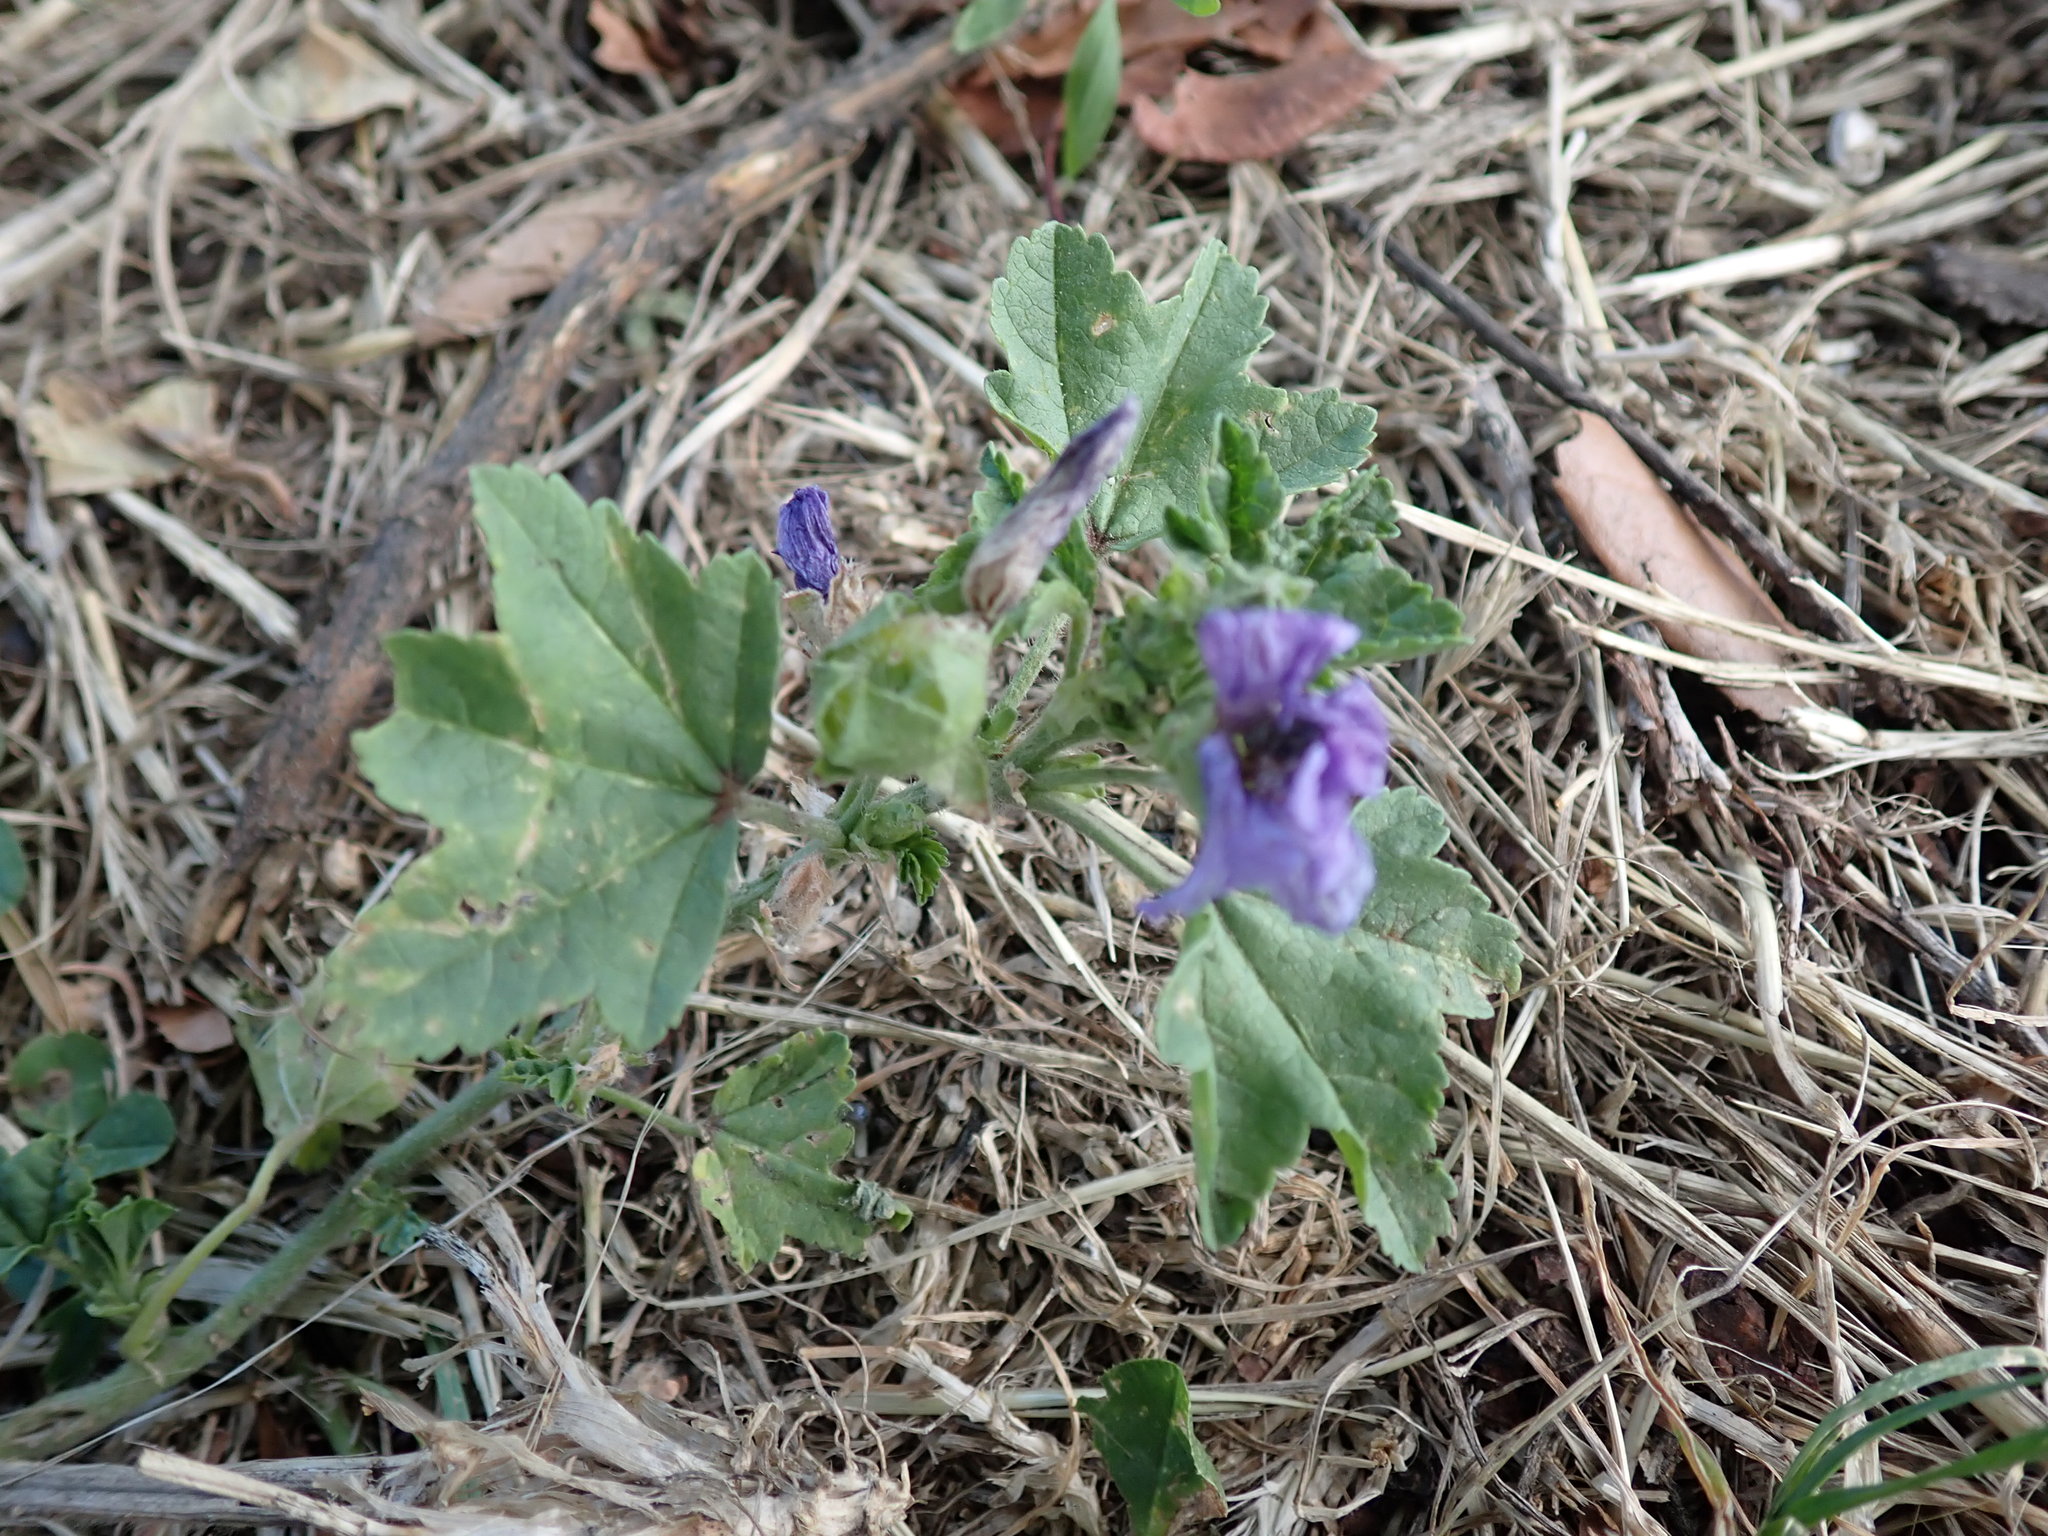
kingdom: Plantae
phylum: Tracheophyta
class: Magnoliopsida
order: Malvales
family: Malvaceae
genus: Malva
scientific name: Malva sylvestris
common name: Common mallow
